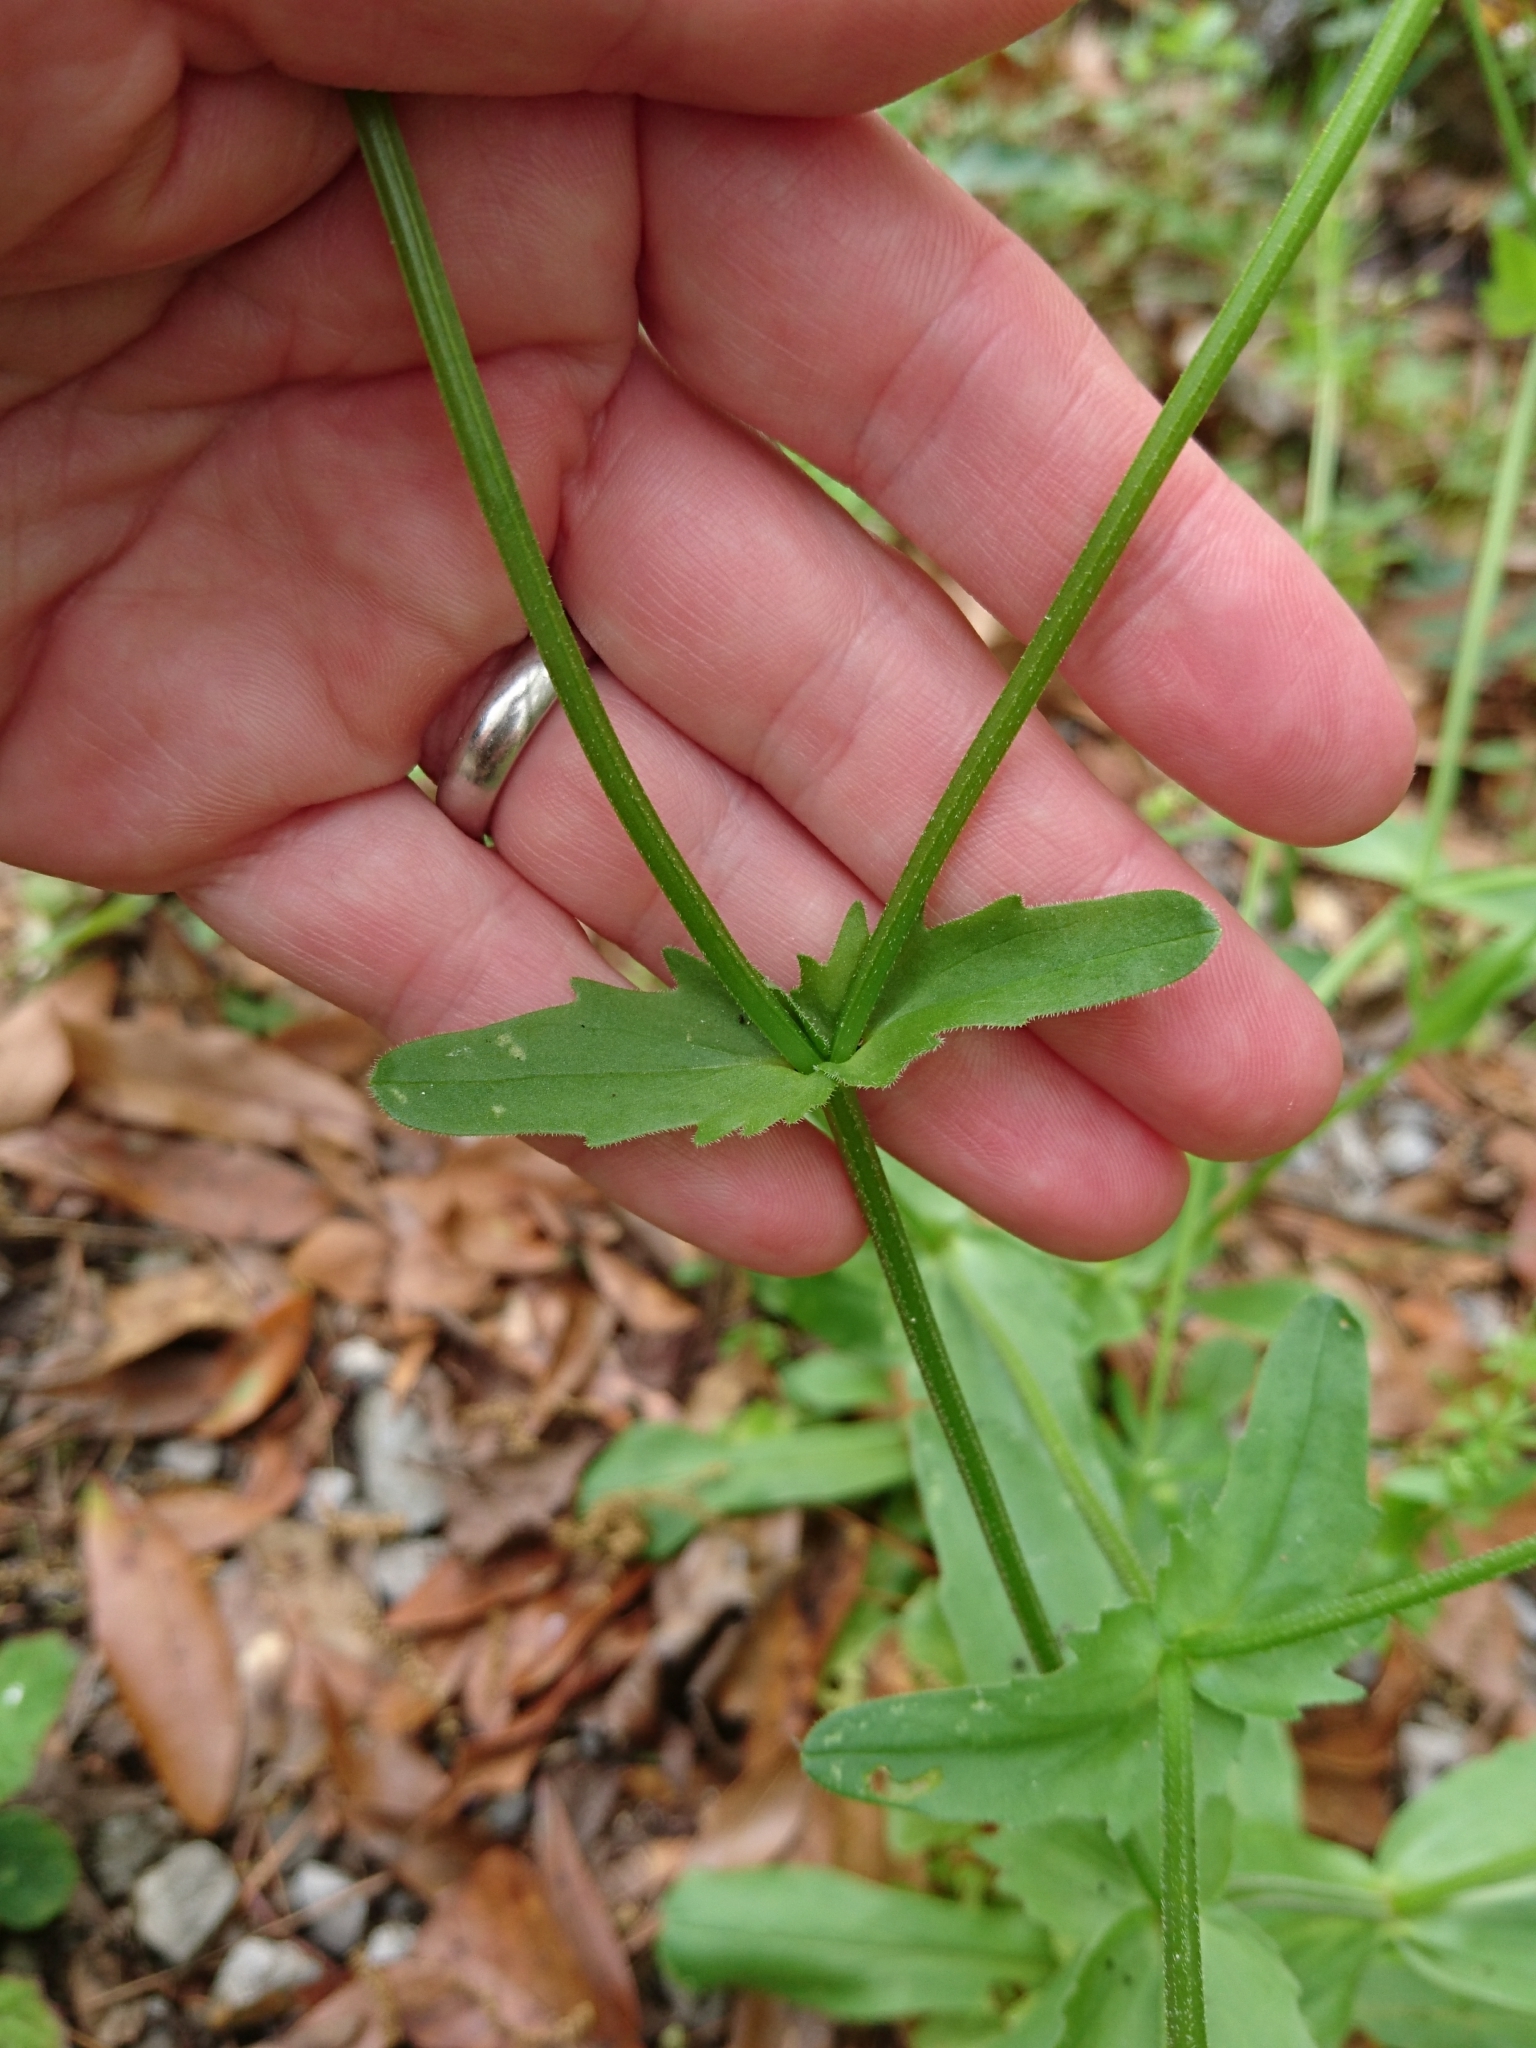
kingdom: Plantae
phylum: Tracheophyta
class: Magnoliopsida
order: Dipsacales
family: Caprifoliaceae
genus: Valerianella
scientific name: Valerianella radiata
